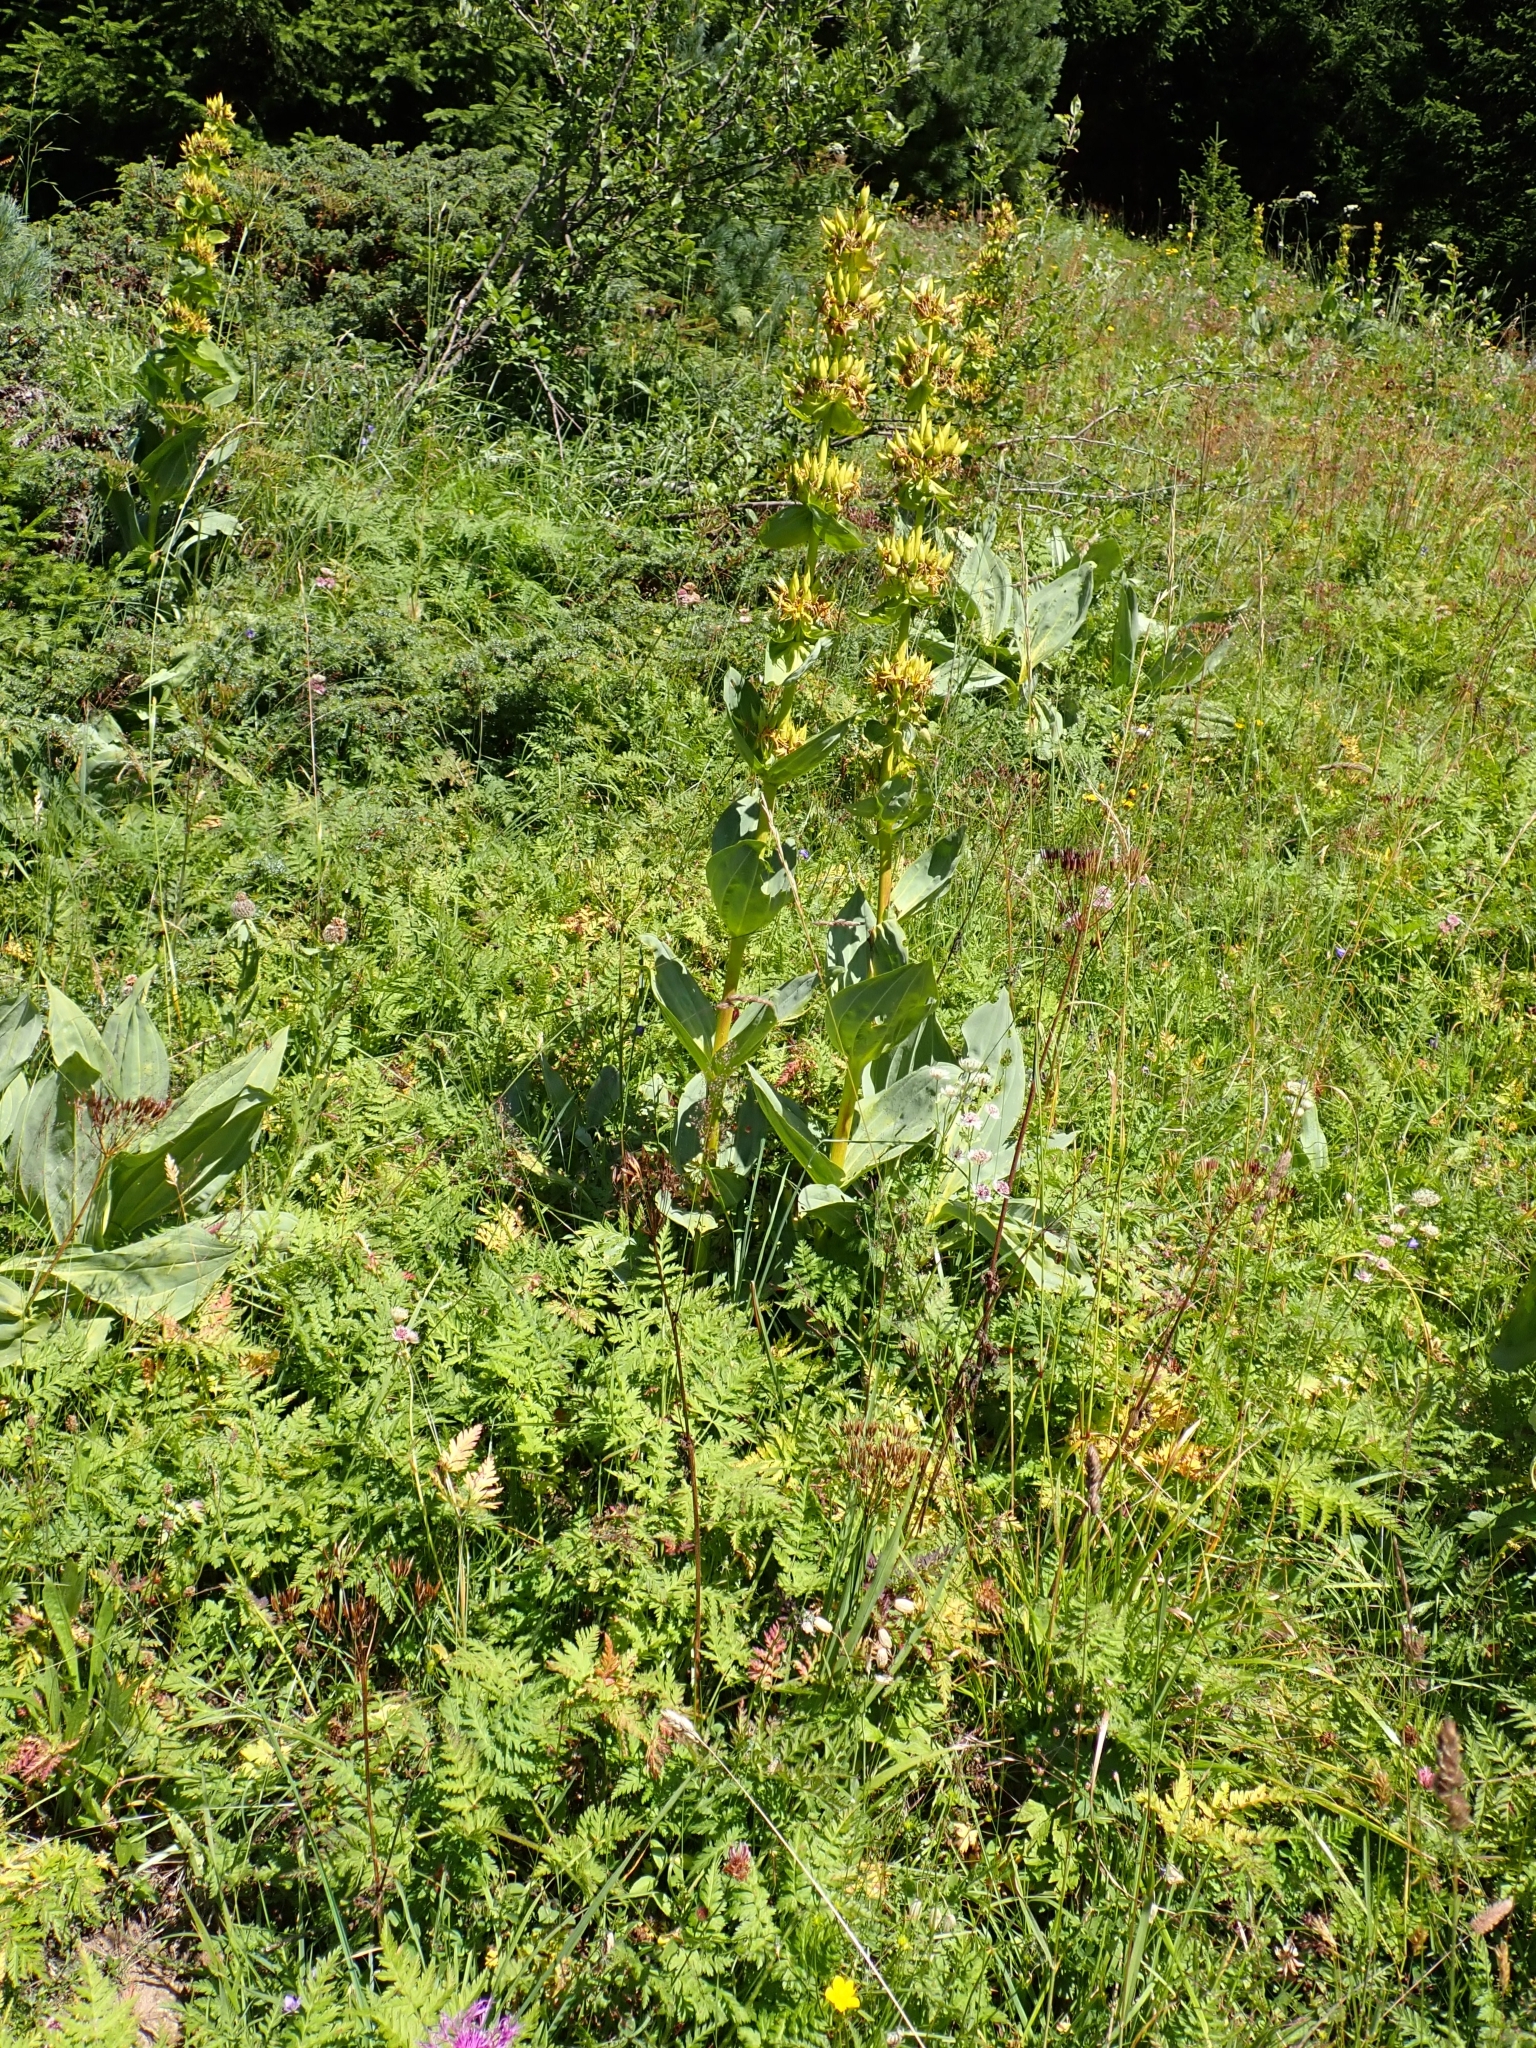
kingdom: Plantae
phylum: Tracheophyta
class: Magnoliopsida
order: Gentianales
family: Gentianaceae
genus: Gentiana
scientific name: Gentiana lutea
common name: Great yellow gentian
